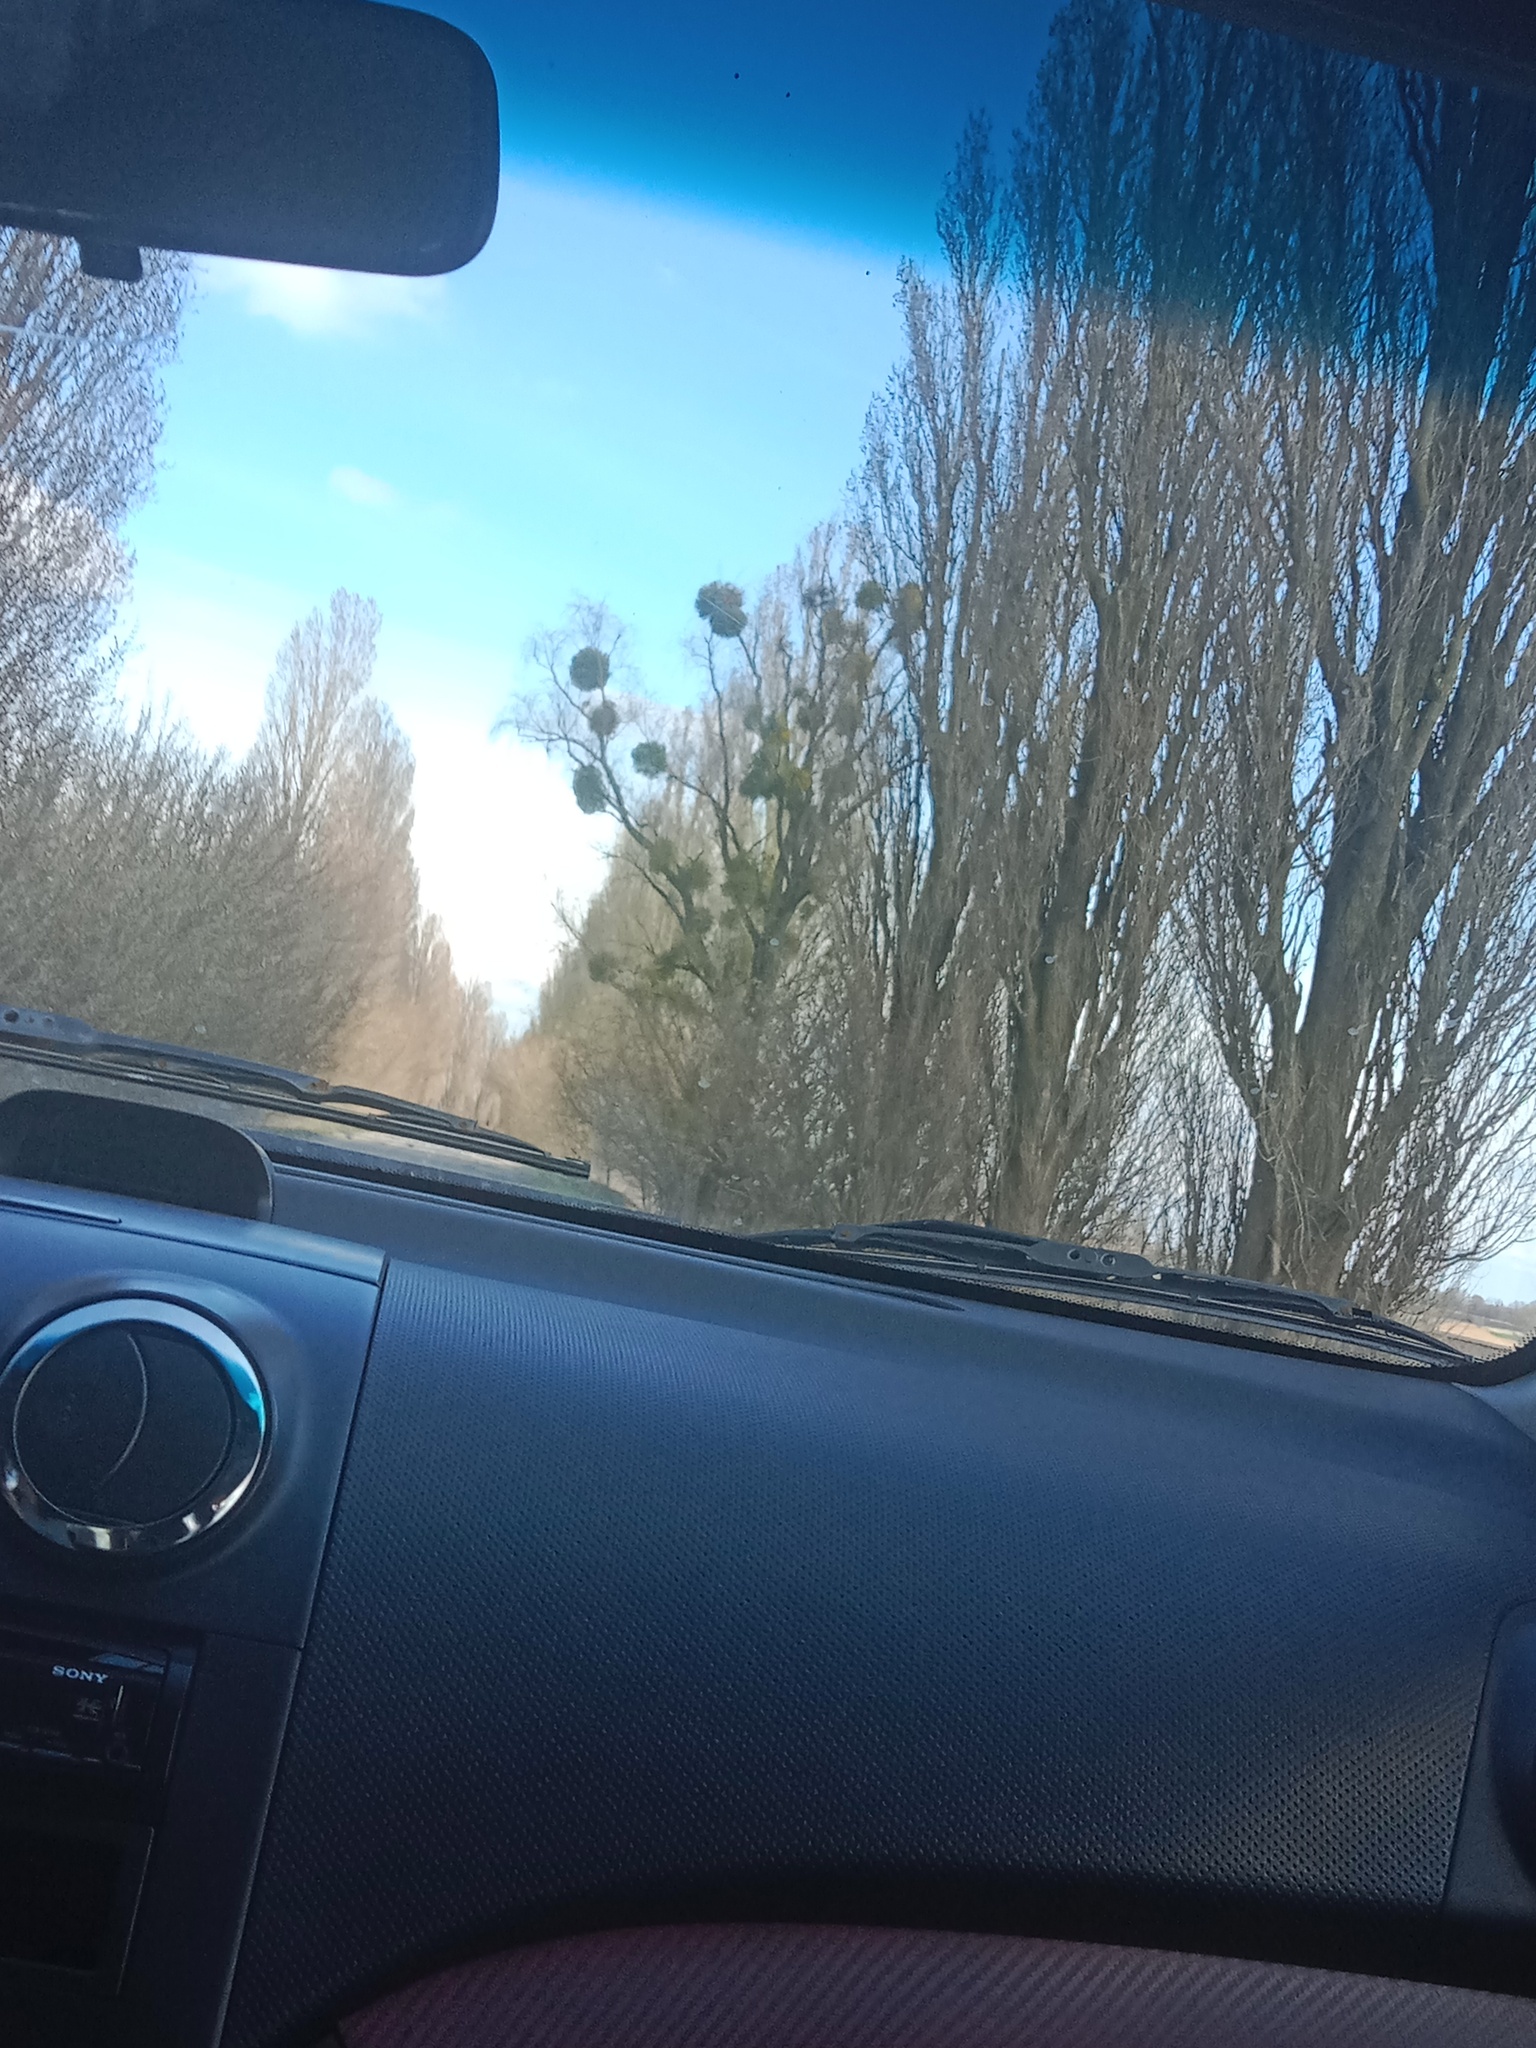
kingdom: Plantae
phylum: Tracheophyta
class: Magnoliopsida
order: Santalales
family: Viscaceae
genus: Viscum
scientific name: Viscum album
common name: Mistletoe
